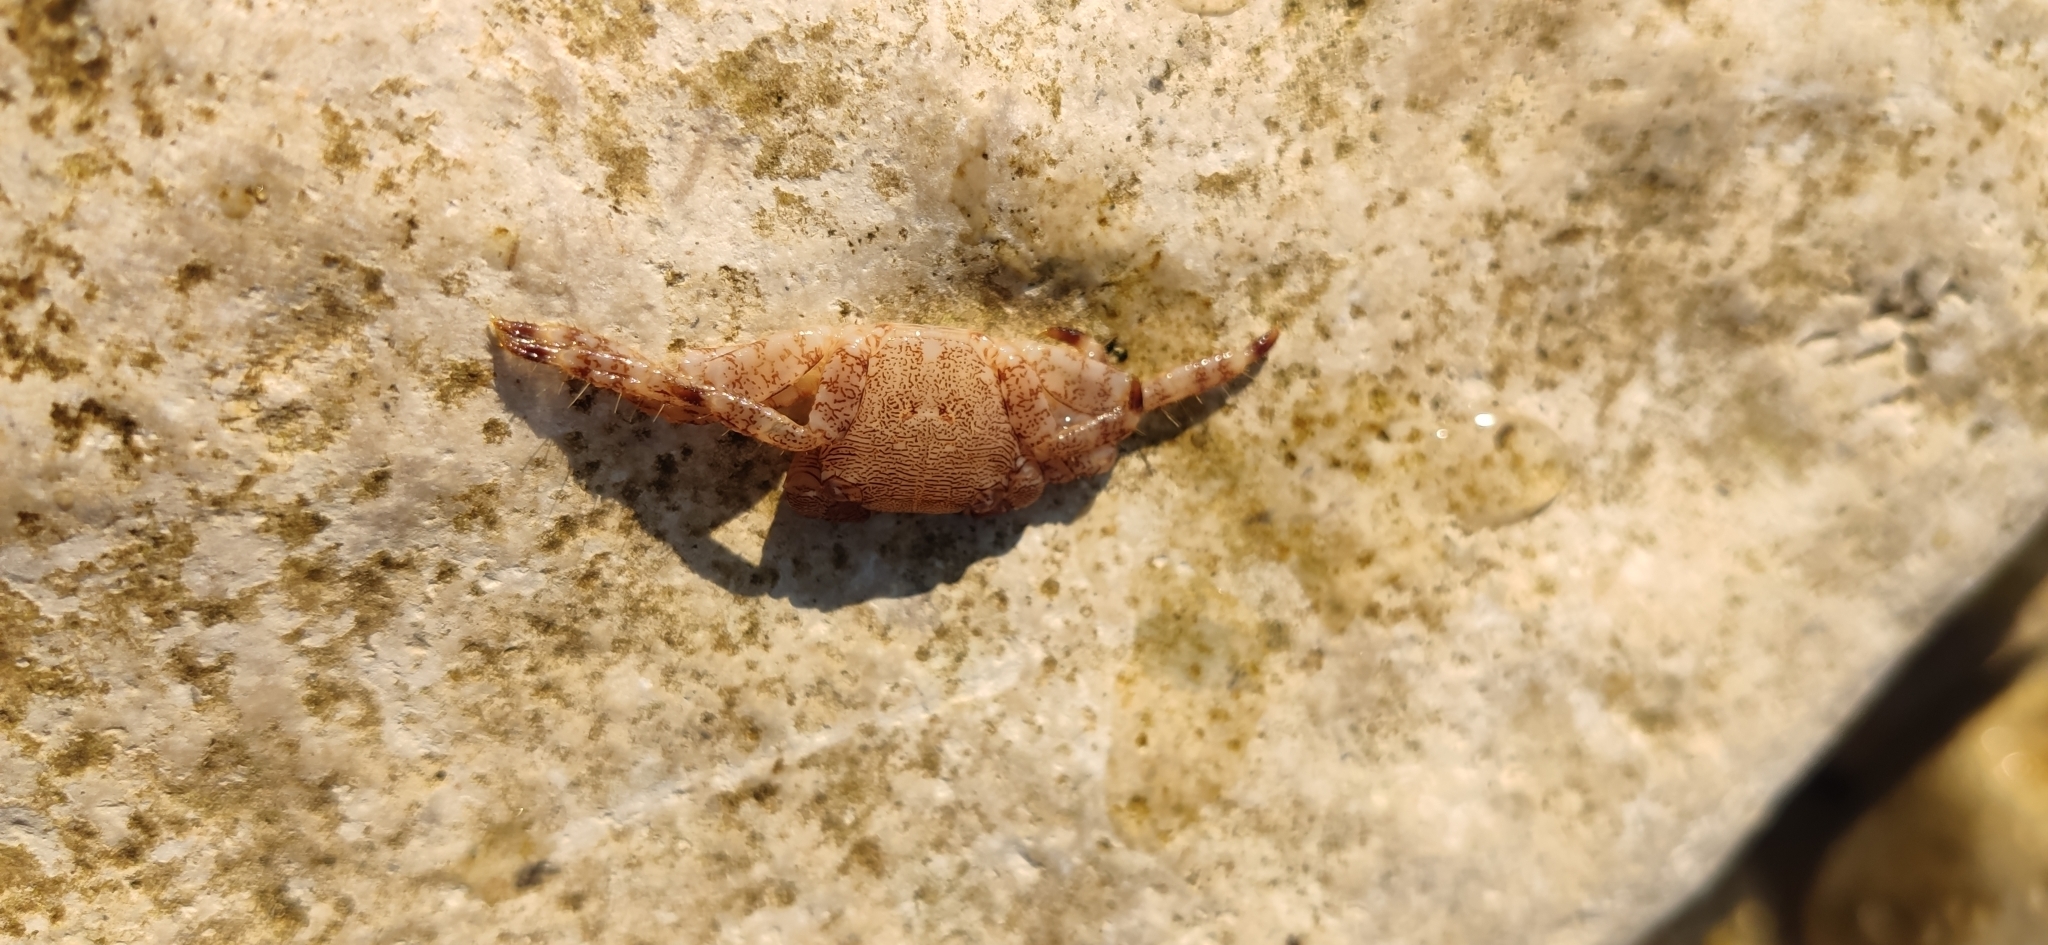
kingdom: Animalia
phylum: Arthropoda
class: Malacostraca
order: Decapoda
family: Grapsidae
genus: Pachygrapsus
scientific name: Pachygrapsus marmoratus
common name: Marbled rock crab
